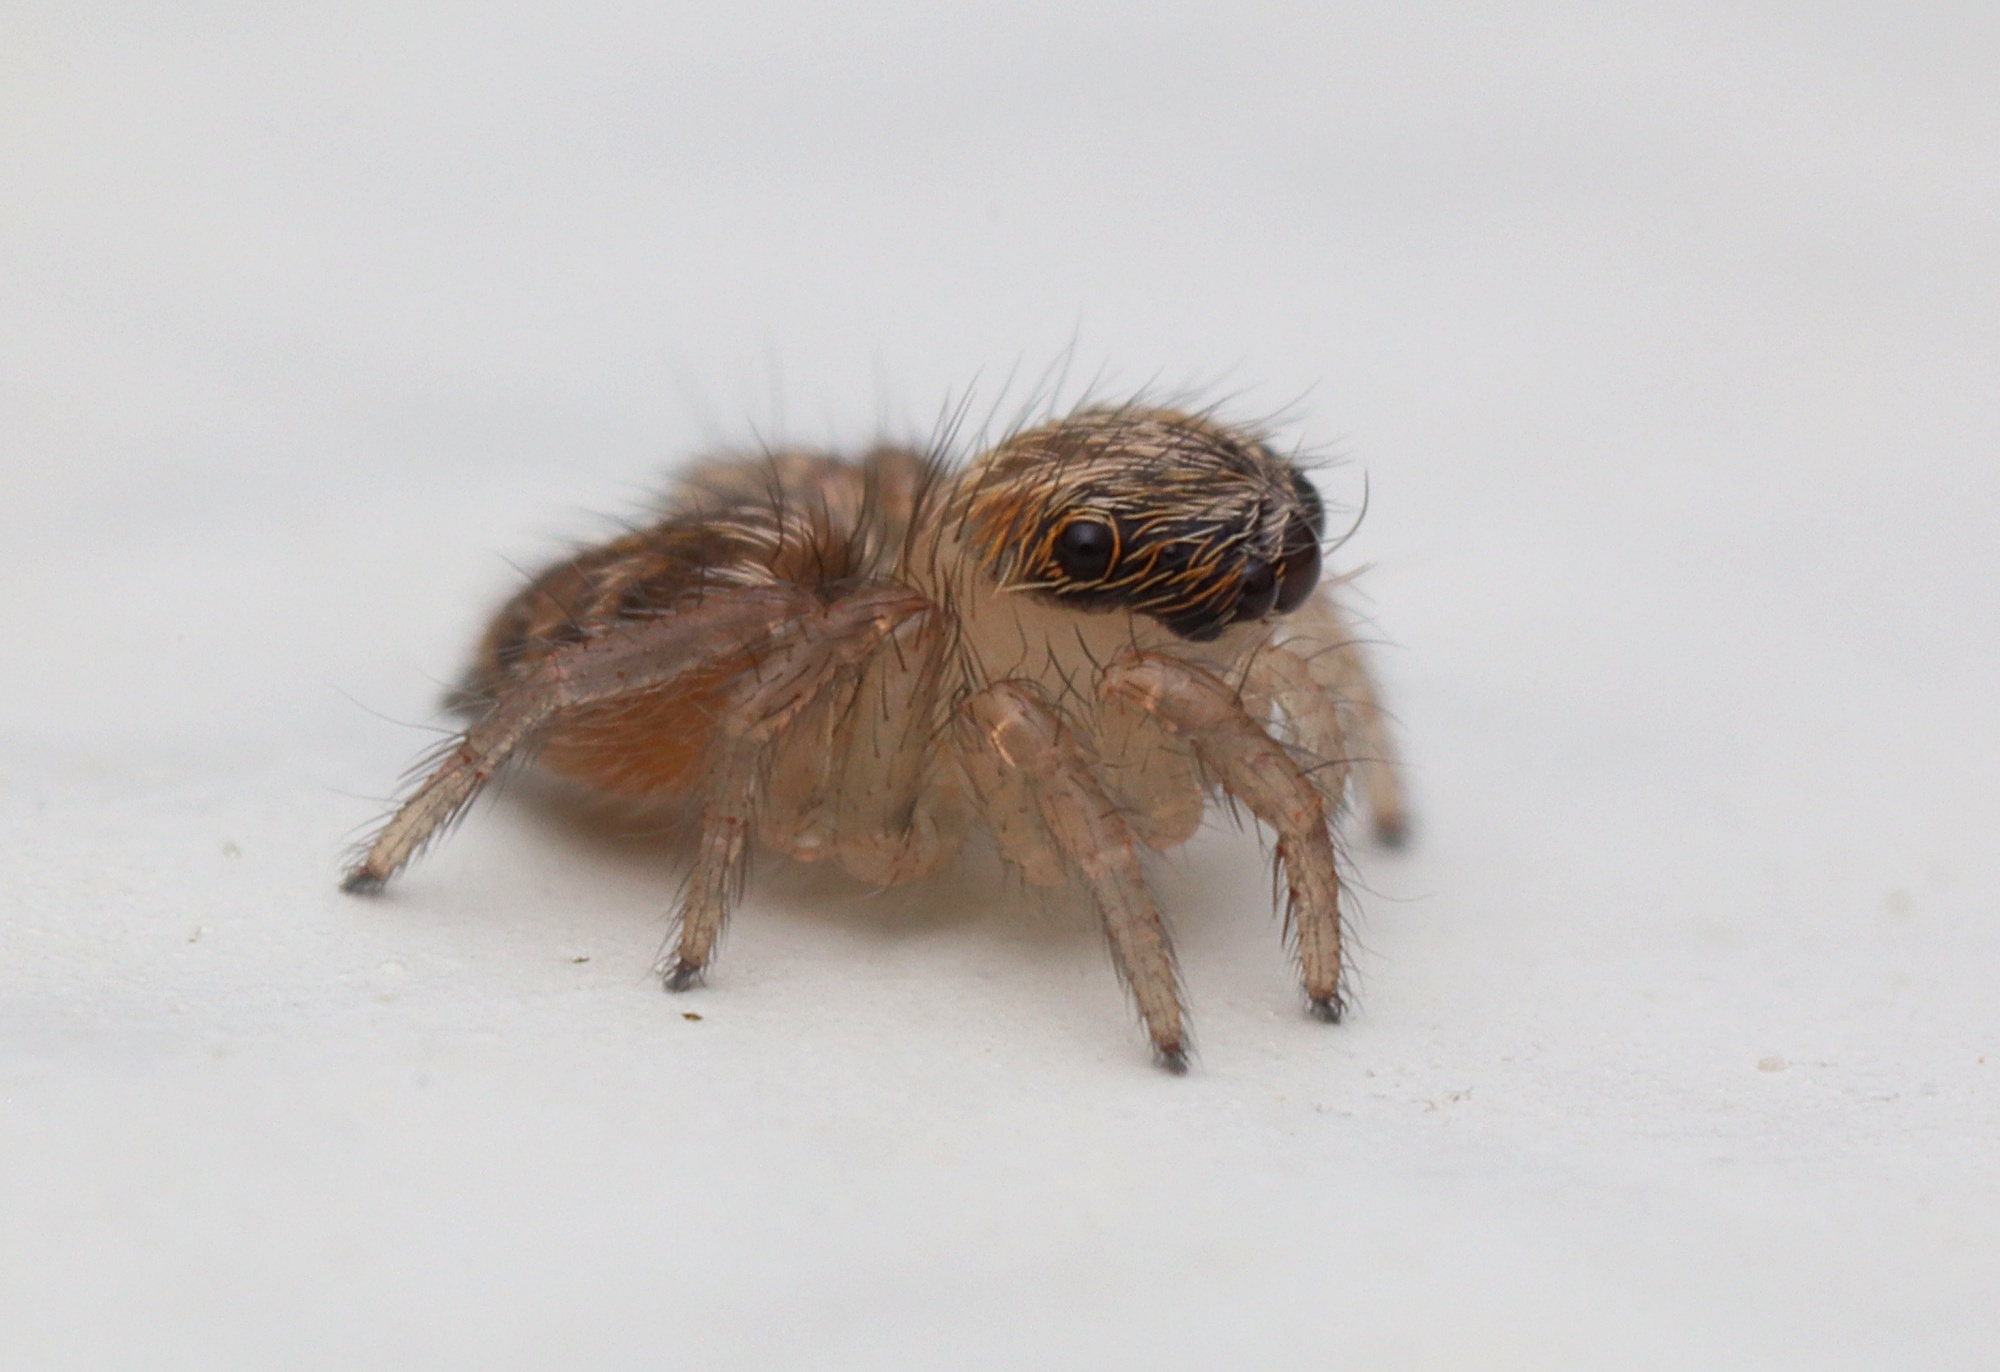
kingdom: Animalia
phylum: Arthropoda
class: Arachnida
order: Araneae
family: Salticidae
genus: Maratus
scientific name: Maratus griseus
